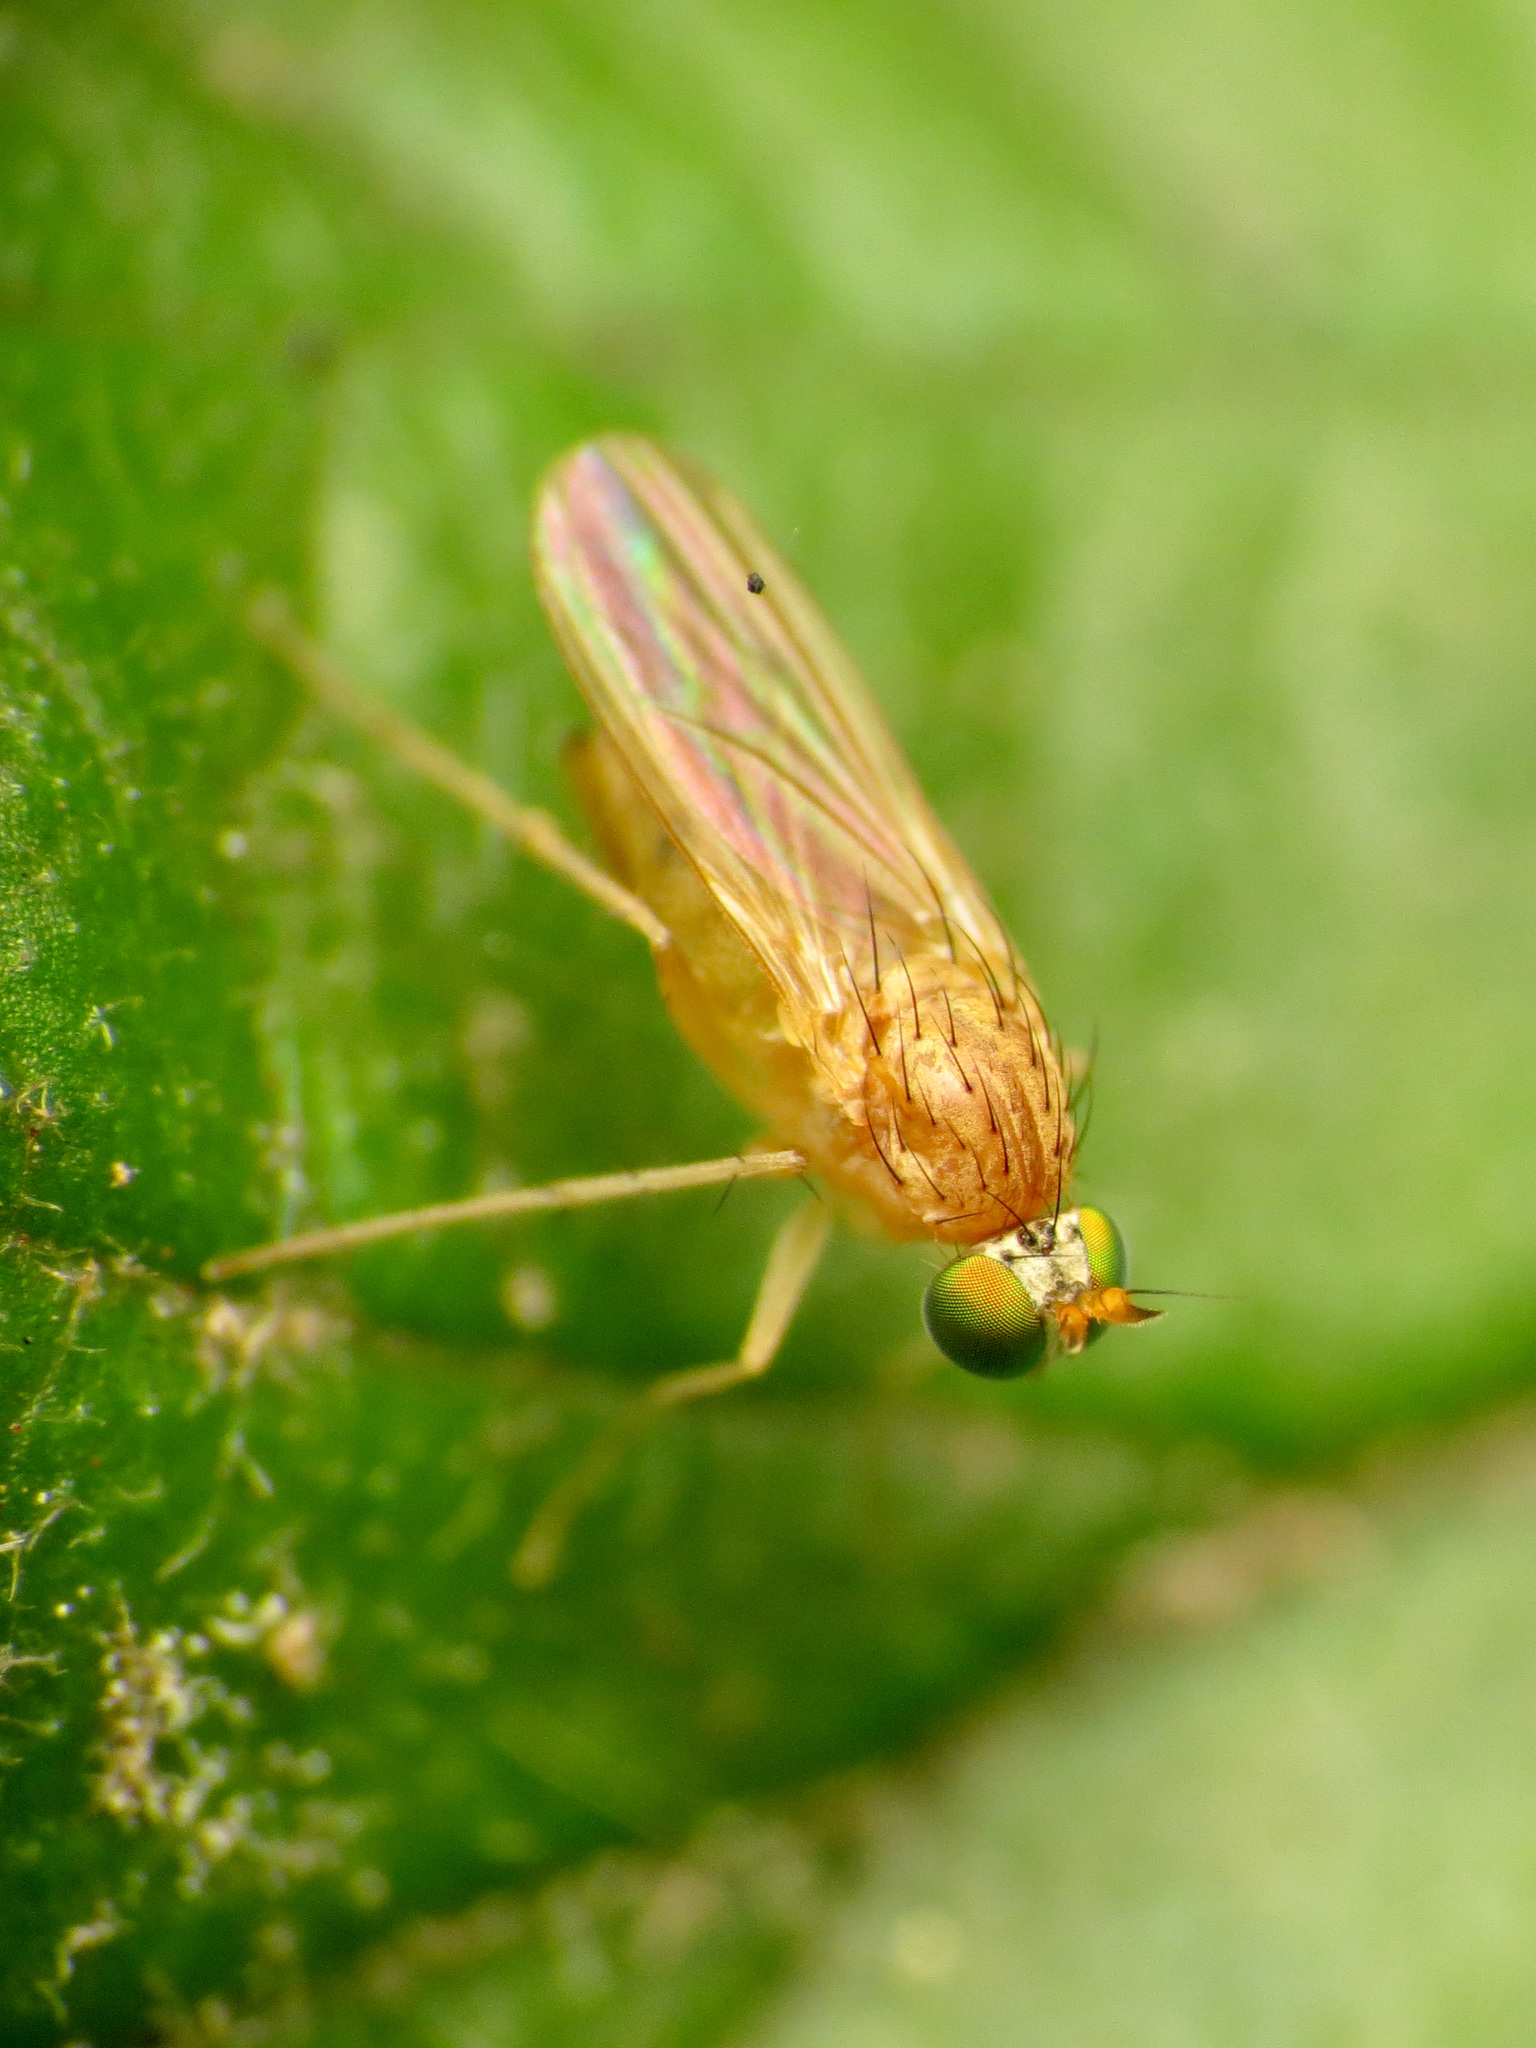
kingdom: Animalia
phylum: Arthropoda
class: Insecta
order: Diptera
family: Dolichopodidae
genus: Gymnopternus
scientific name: Gymnopternus flavus
